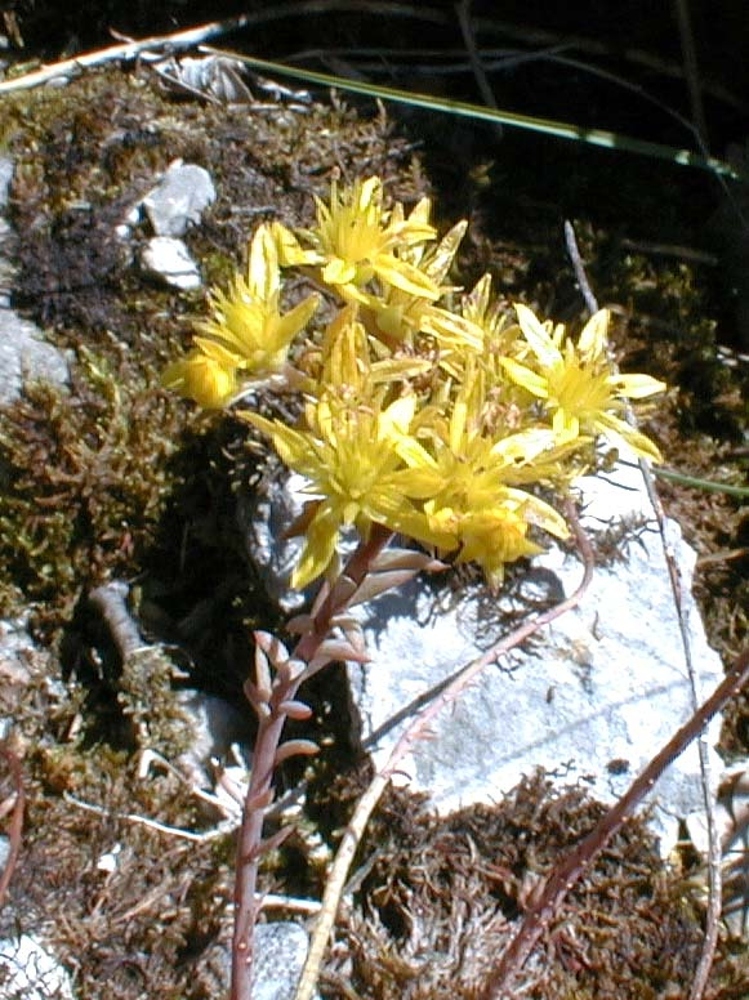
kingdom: Plantae
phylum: Tracheophyta
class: Magnoliopsida
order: Saxifragales
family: Crassulaceae
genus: Petrosedum
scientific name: Petrosedum rupestre
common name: Jenny's stonecrop
